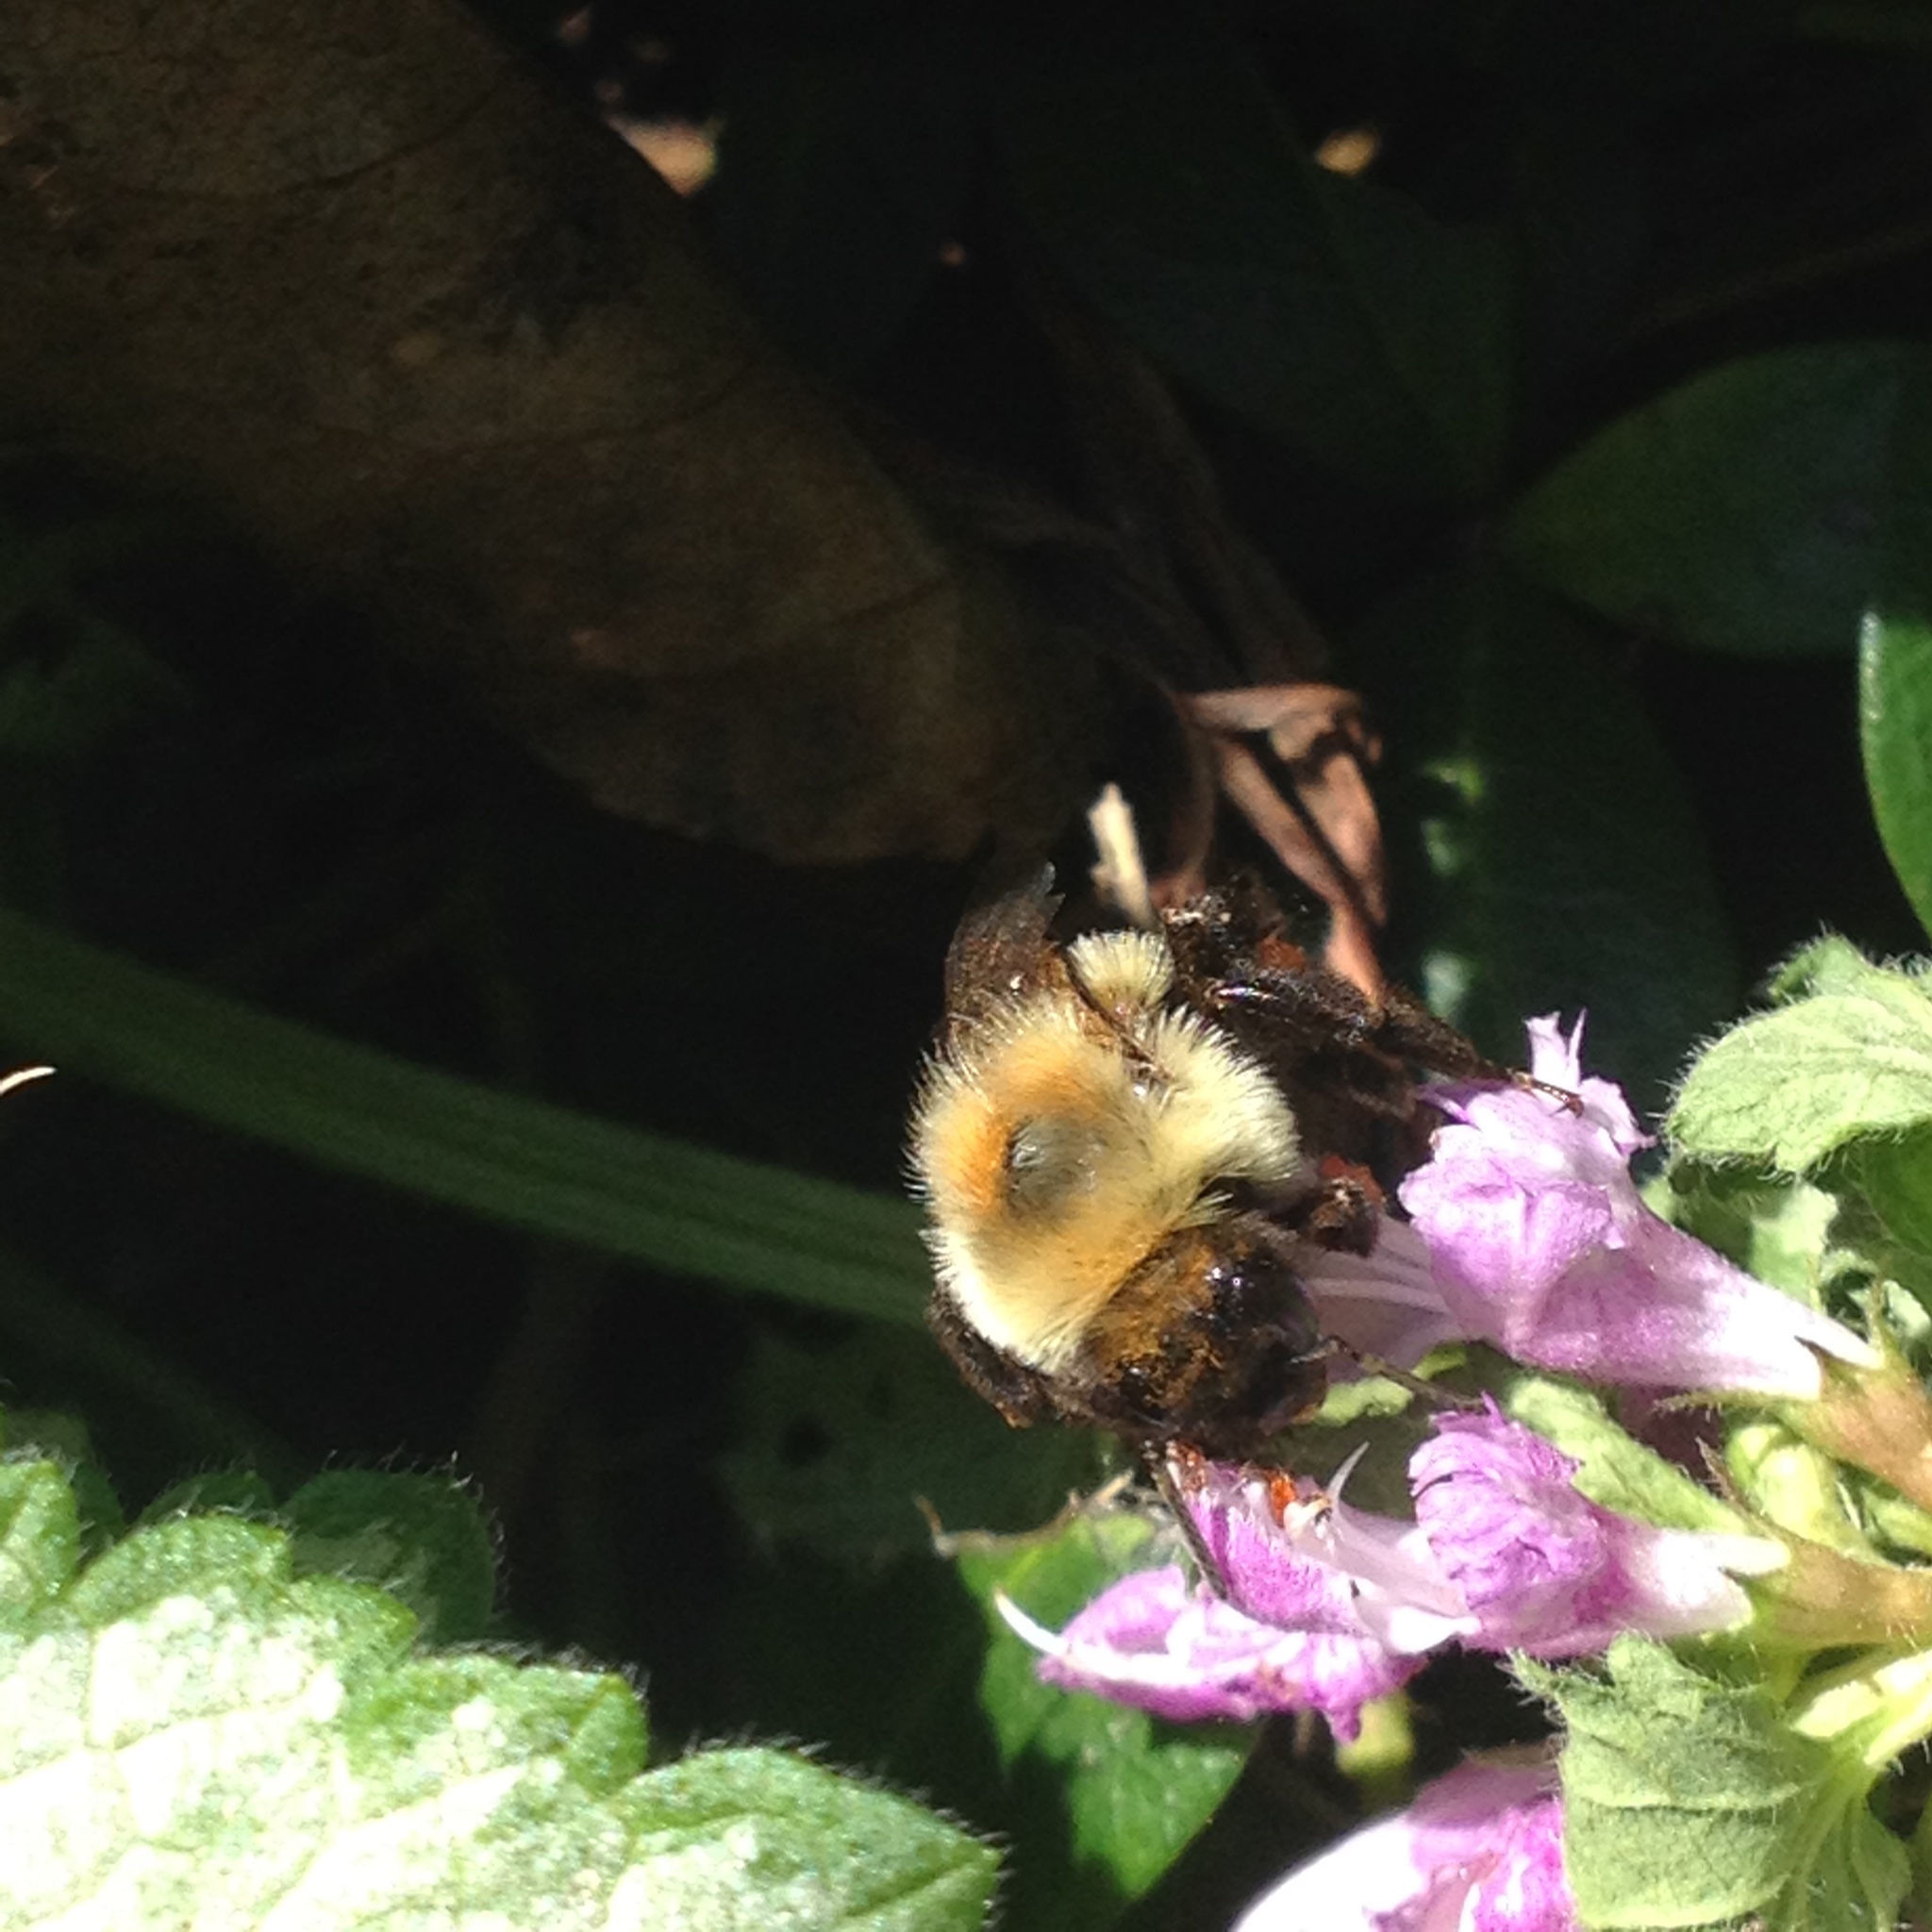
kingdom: Animalia
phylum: Arthropoda
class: Insecta
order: Hymenoptera
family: Apidae
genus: Bombus
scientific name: Bombus impatiens
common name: Common eastern bumble bee
